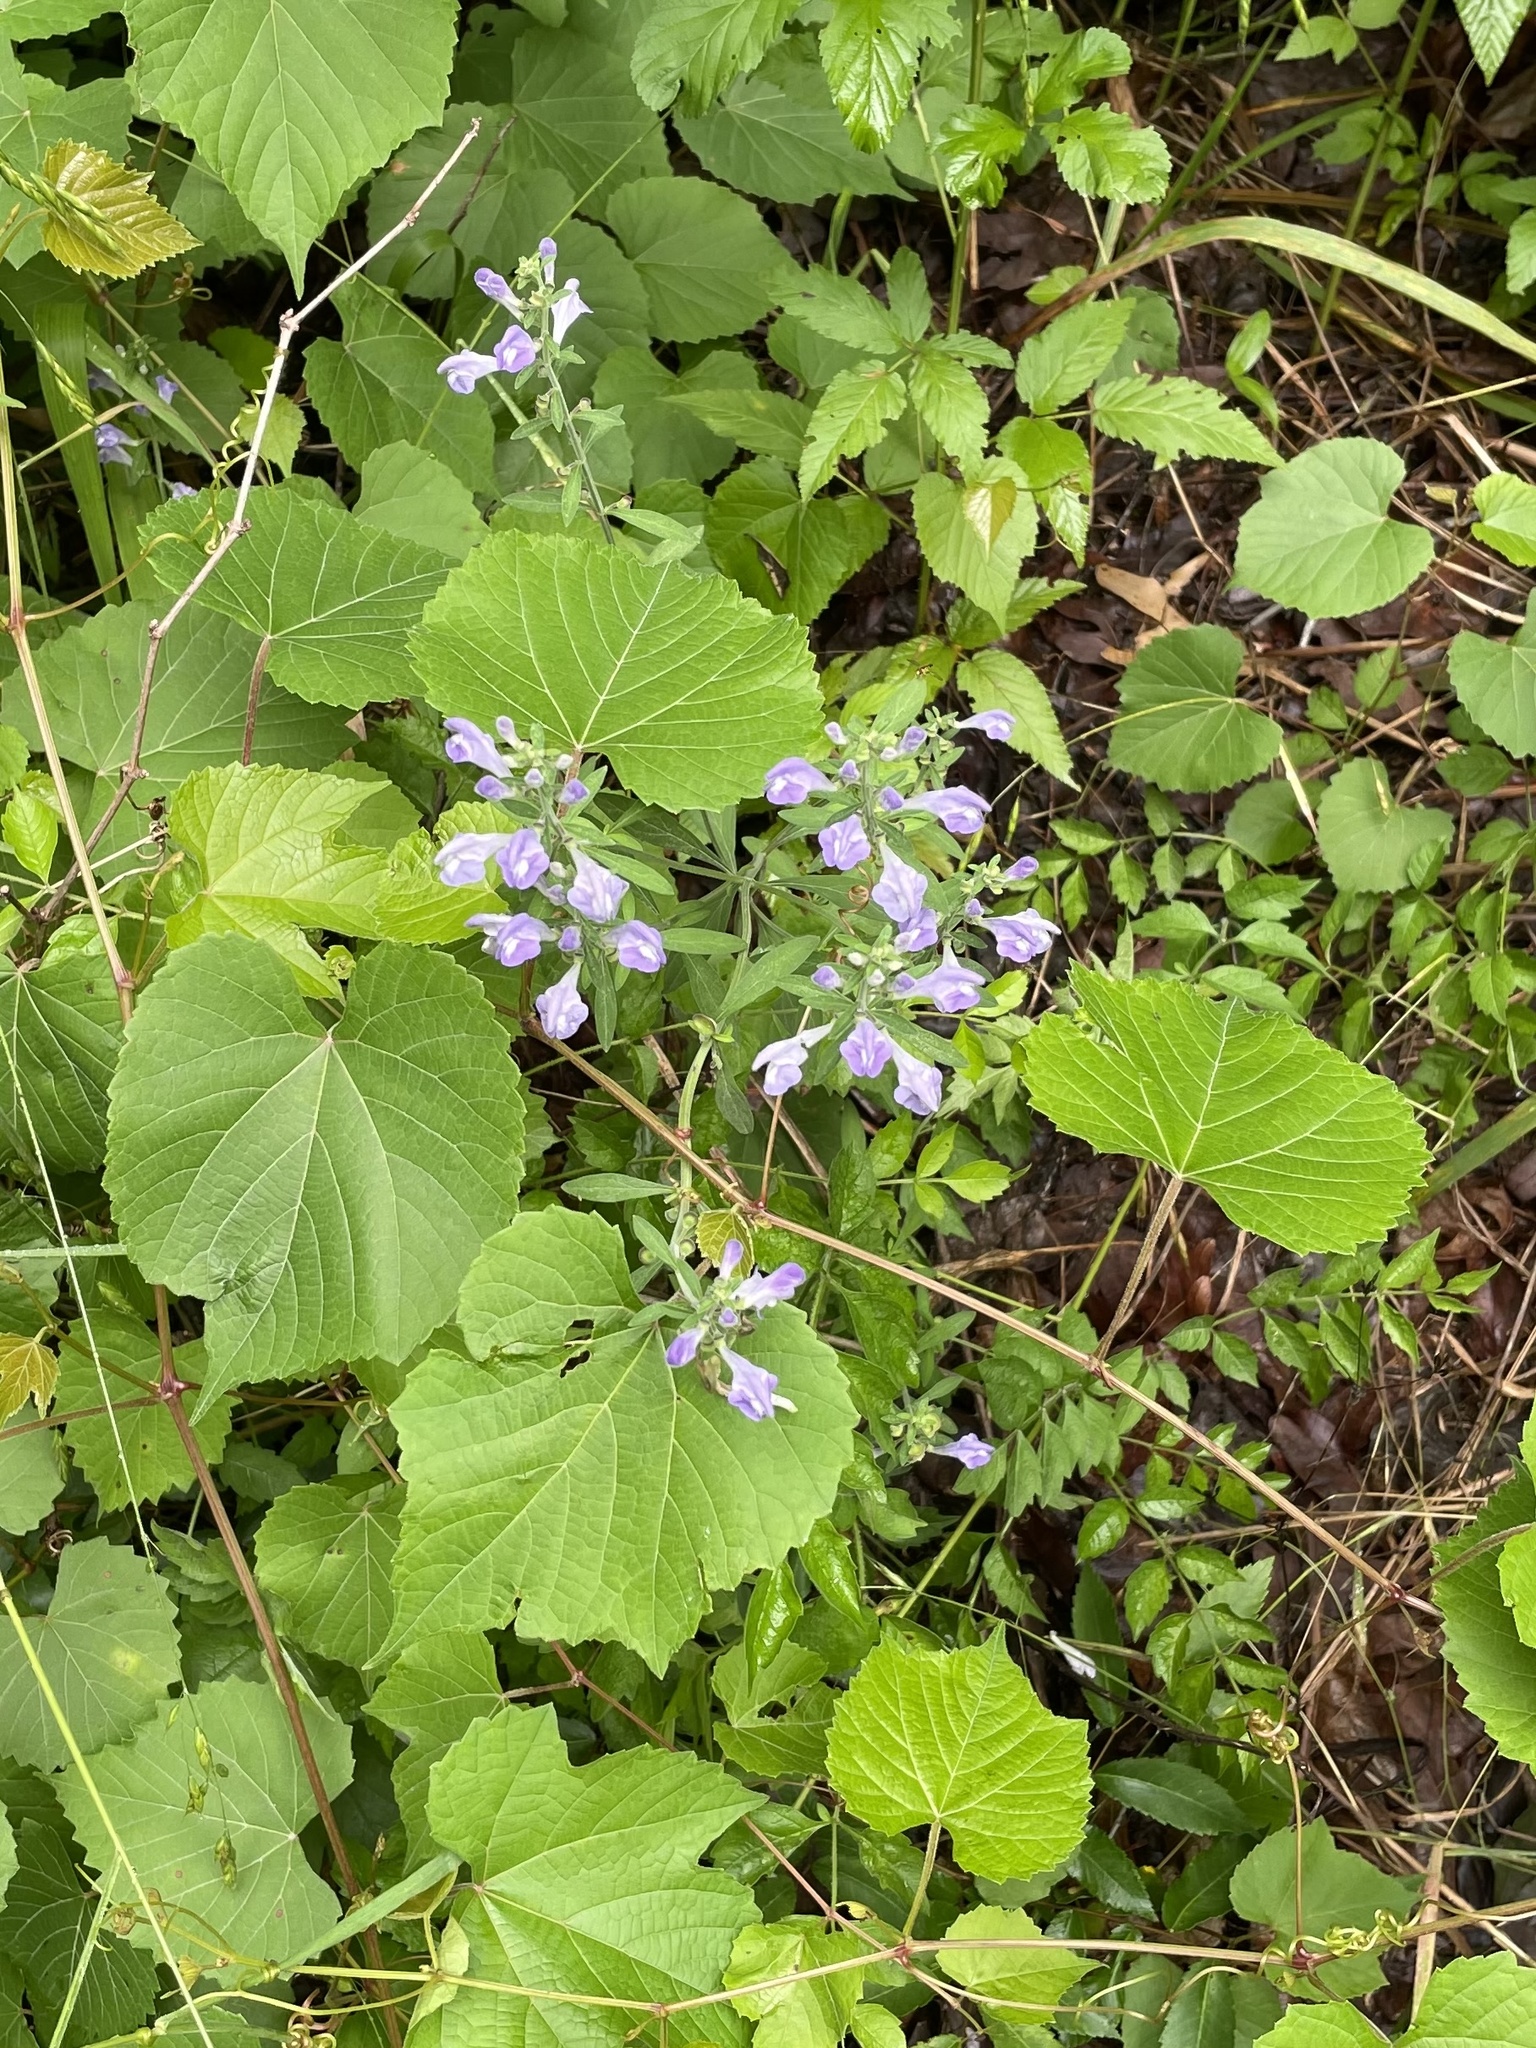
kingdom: Plantae
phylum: Tracheophyta
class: Magnoliopsida
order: Lamiales
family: Lamiaceae
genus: Scutellaria
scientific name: Scutellaria integrifolia
